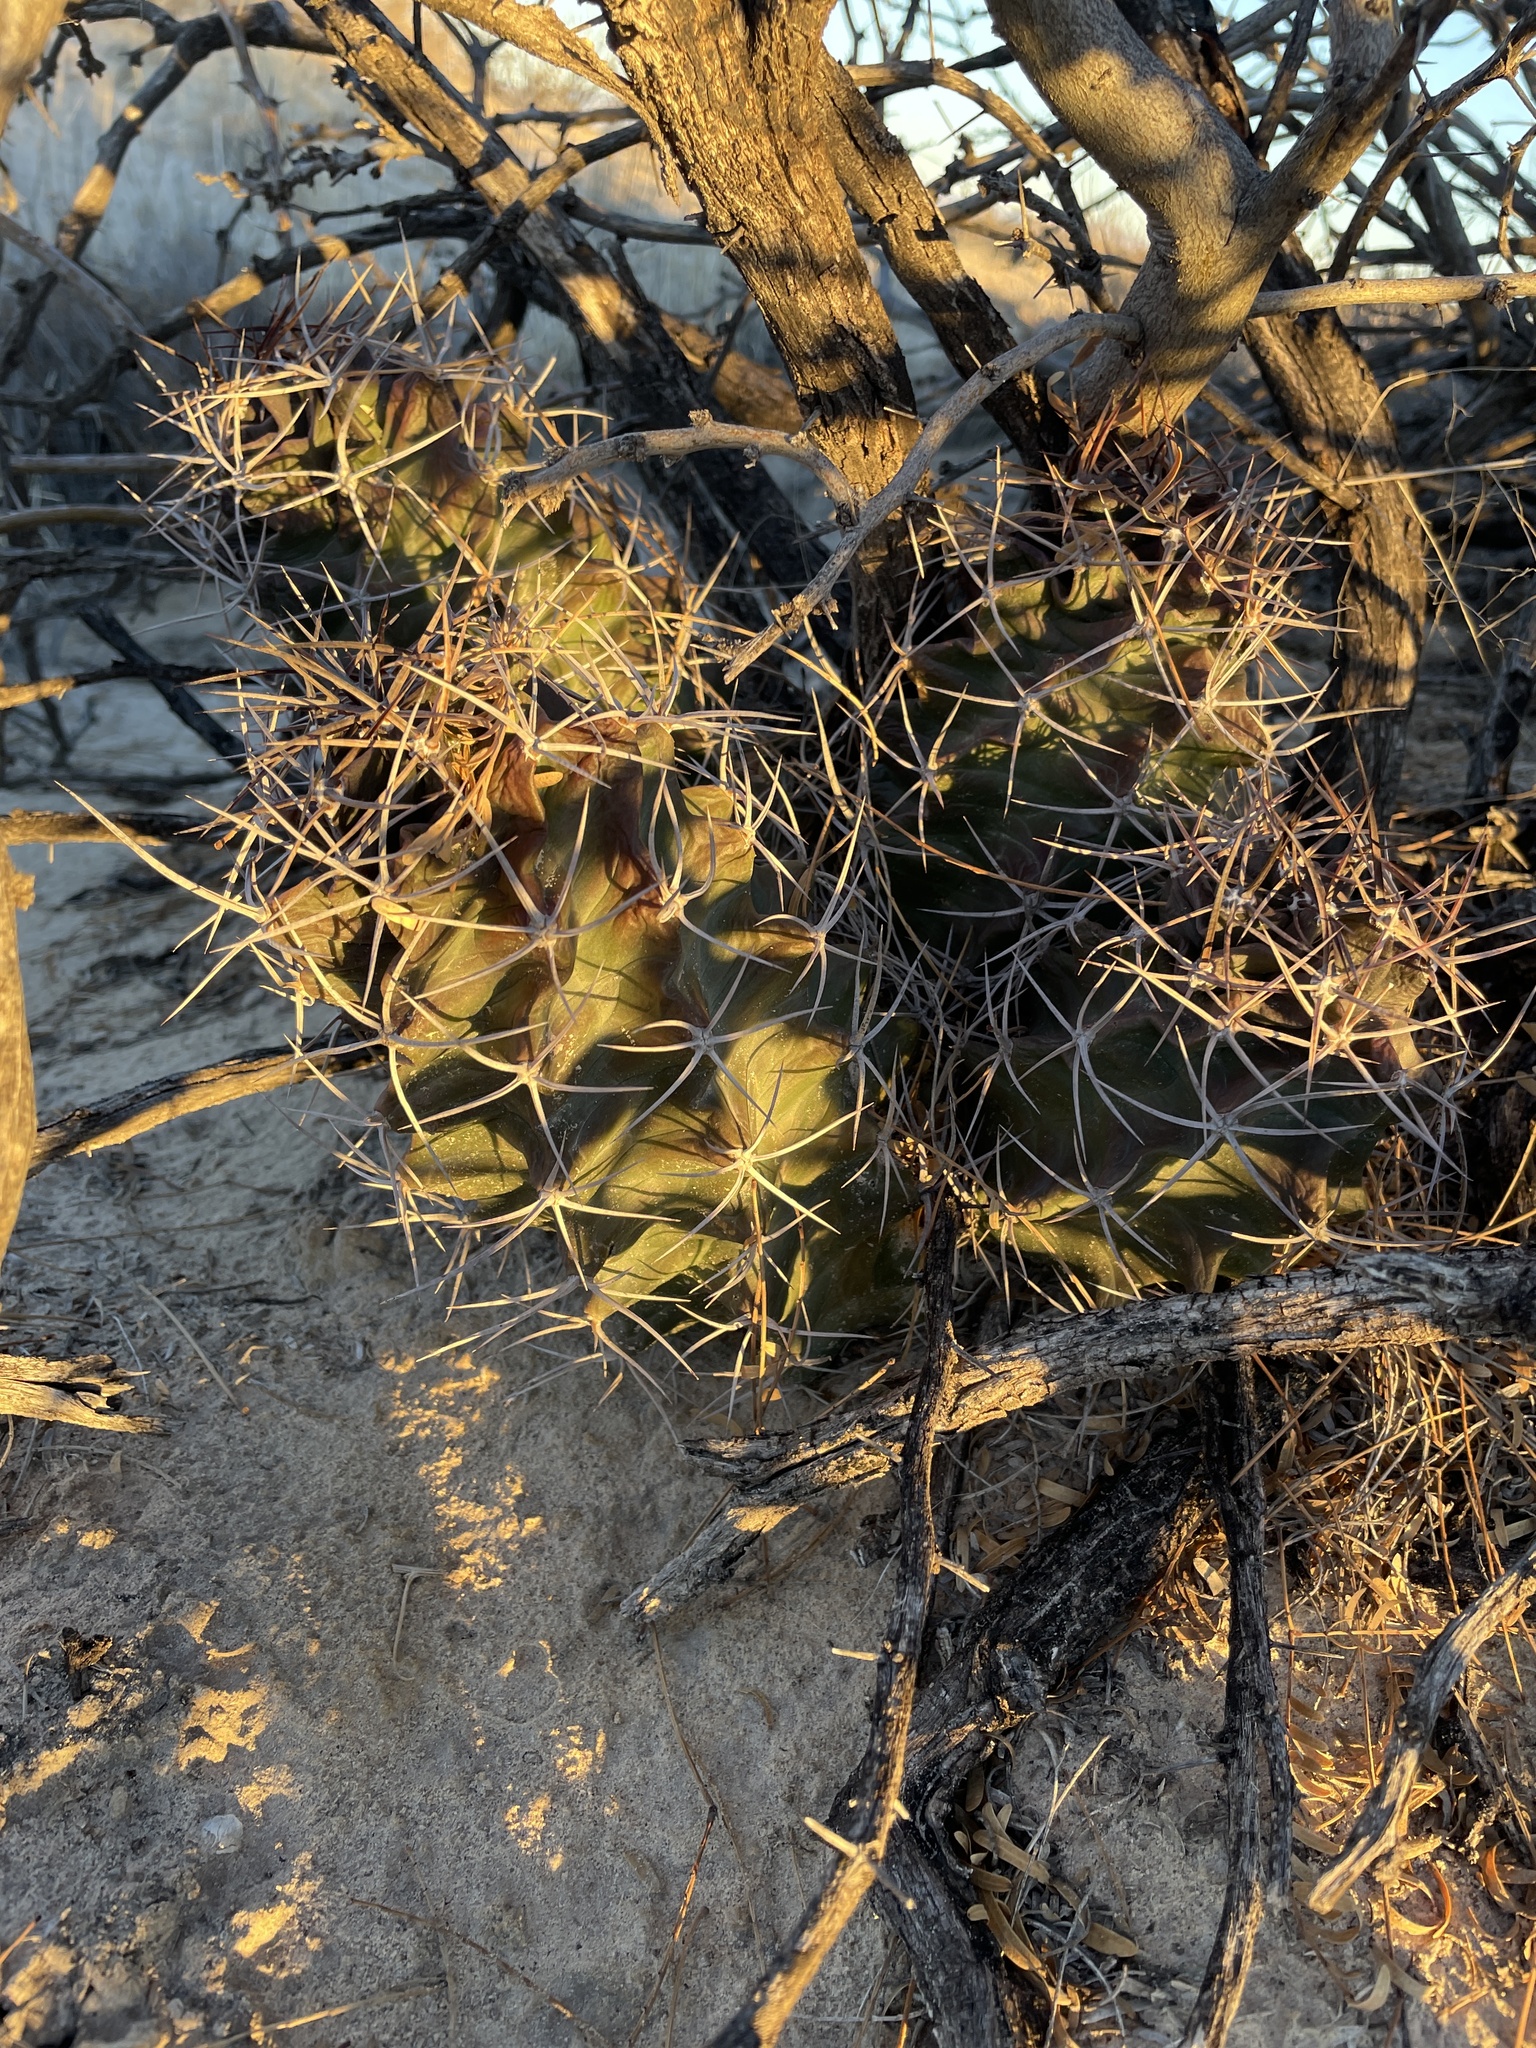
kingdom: Plantae
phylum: Tracheophyta
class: Magnoliopsida
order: Caryophyllales
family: Cactaceae
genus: Echinocereus
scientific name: Echinocereus triglochidiatus
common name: Claretcup hedgehog
